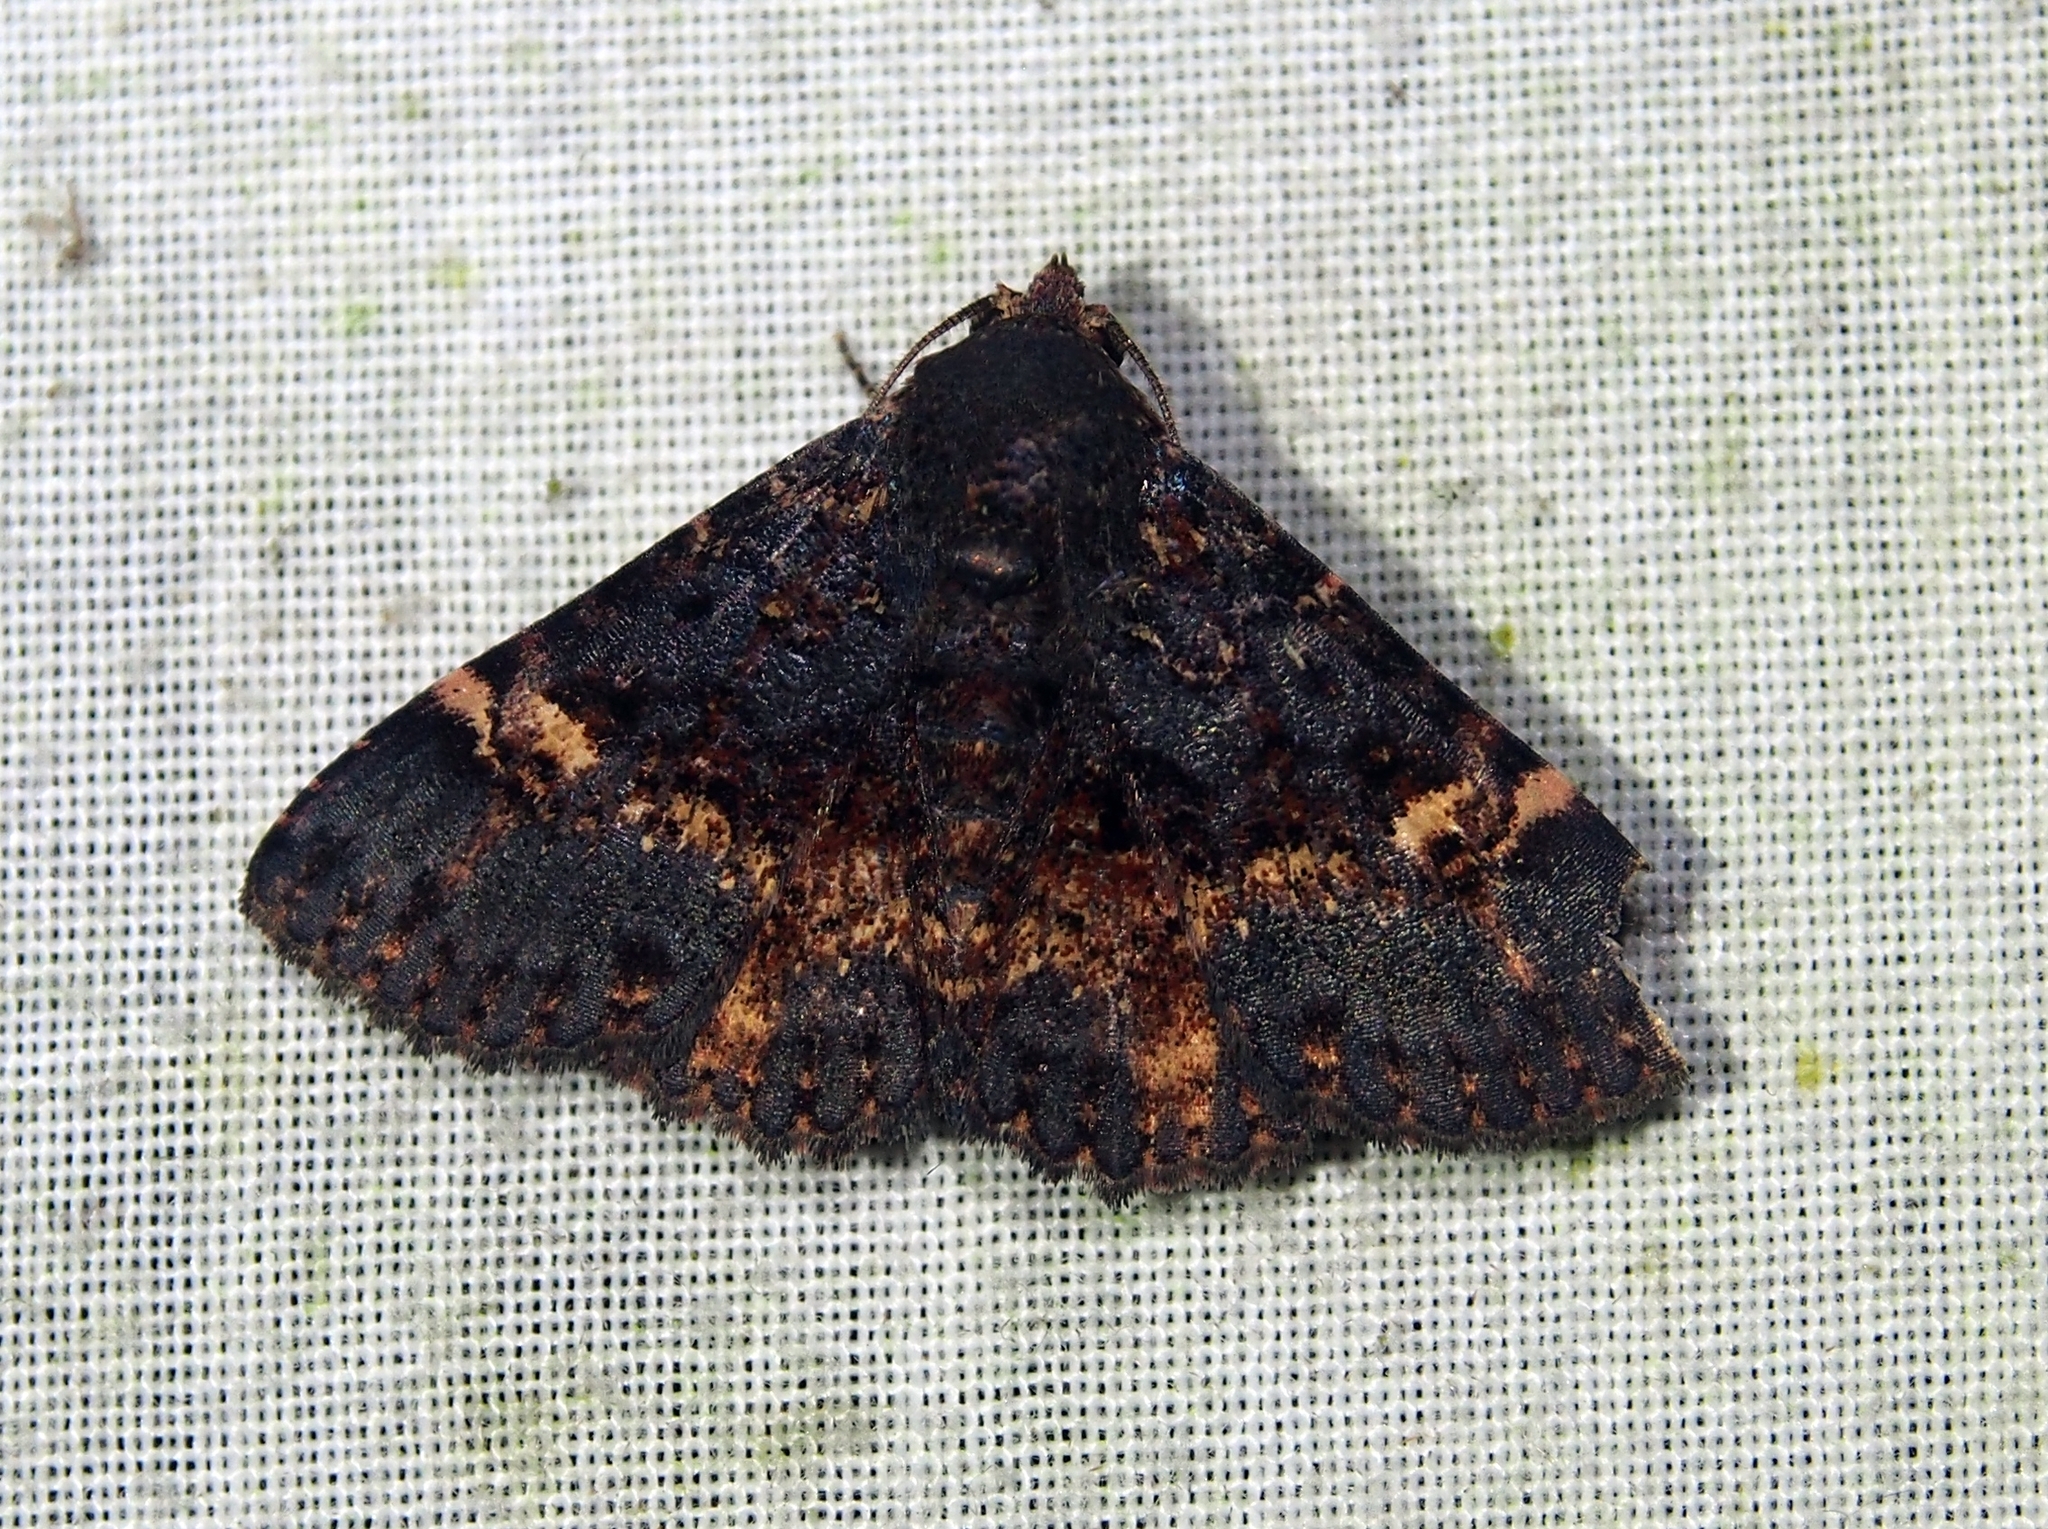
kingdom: Animalia
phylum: Arthropoda
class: Insecta
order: Lepidoptera
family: Erebidae
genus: Metalectra
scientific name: Metalectra carneomacula
